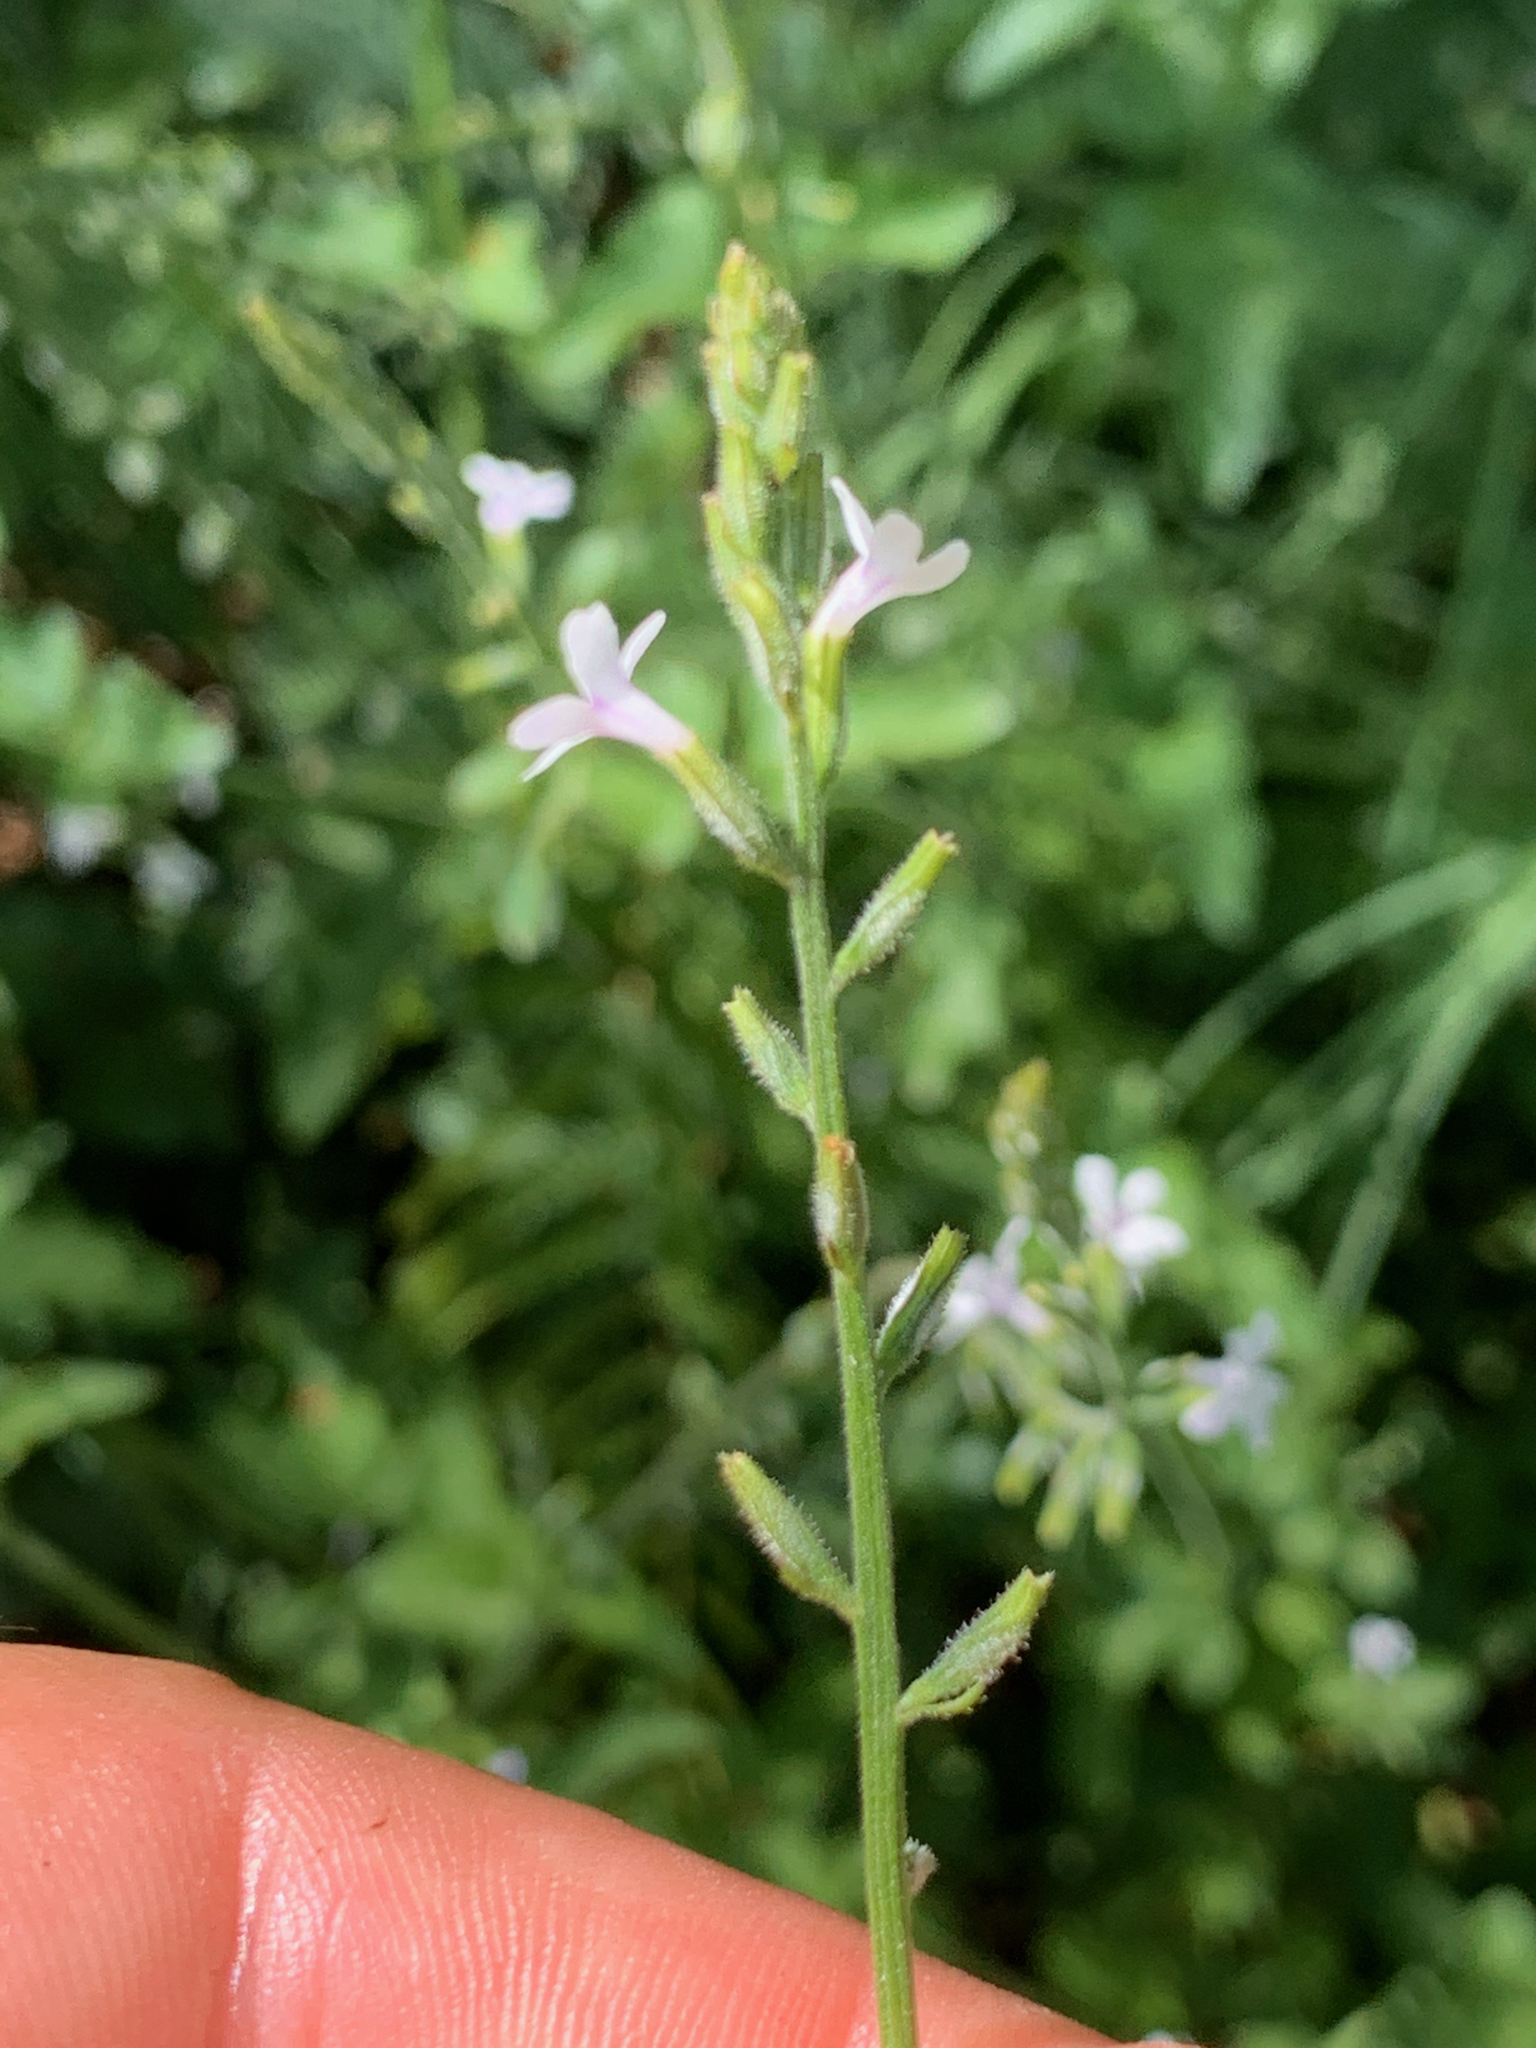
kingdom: Plantae
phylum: Tracheophyta
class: Magnoliopsida
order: Lamiales
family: Verbenaceae
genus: Priva
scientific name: Priva adhaerens
